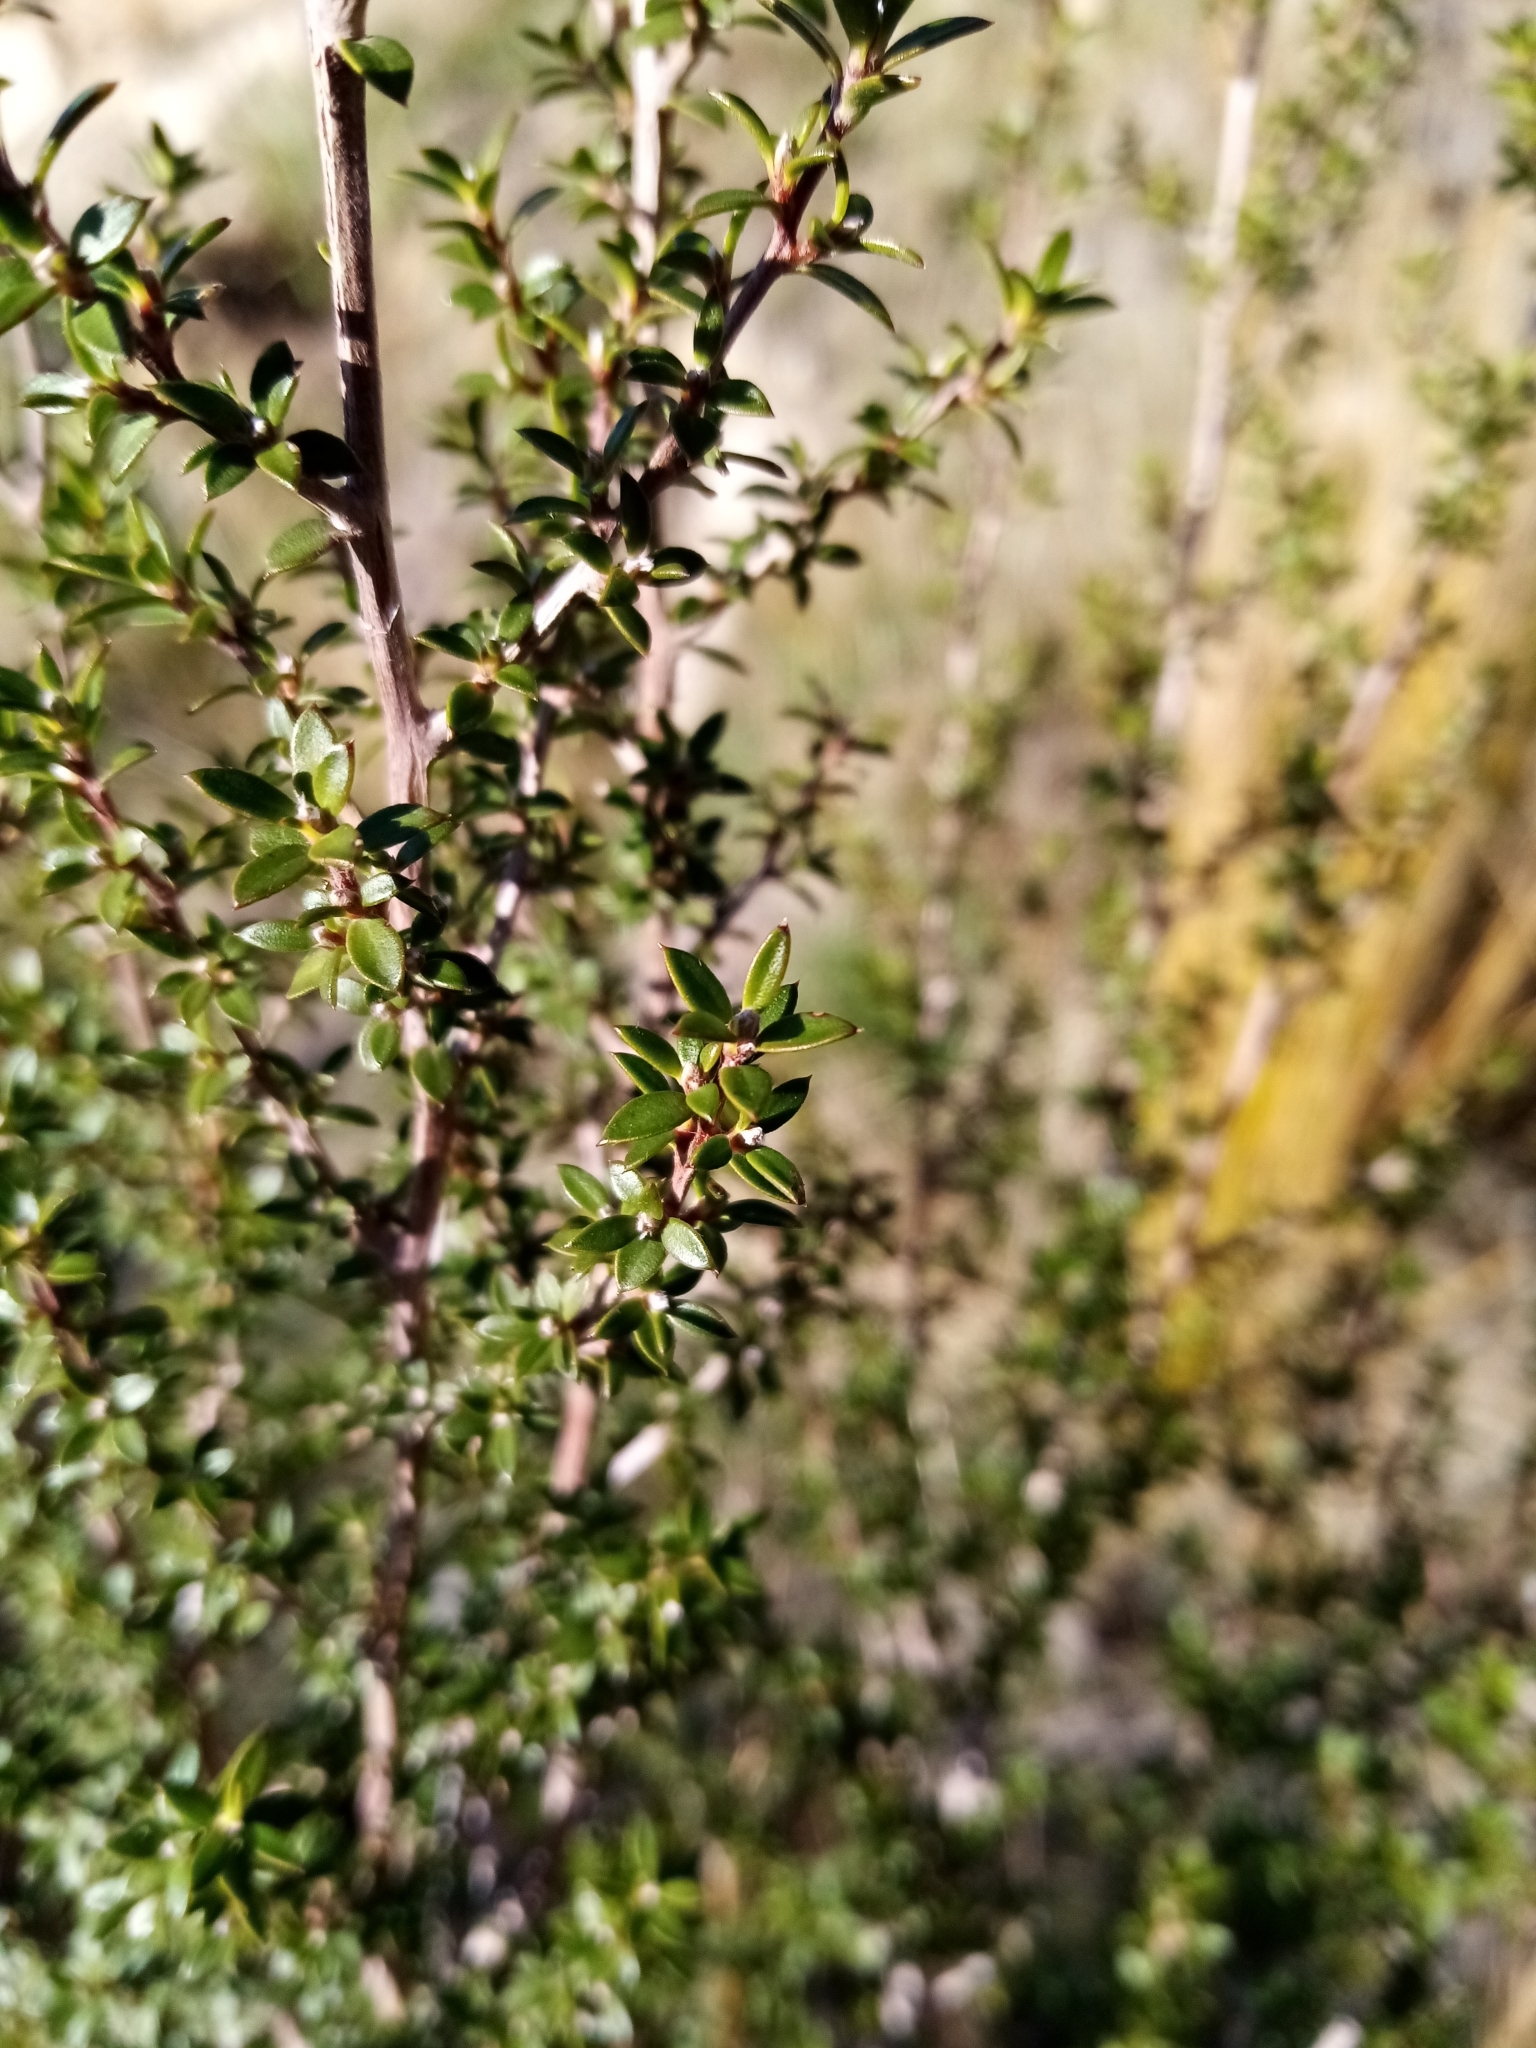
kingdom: Plantae
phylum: Tracheophyta
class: Magnoliopsida
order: Myrtales
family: Myrtaceae
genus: Leptospermum
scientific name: Leptospermum scoparium
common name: Broom tea-tree
